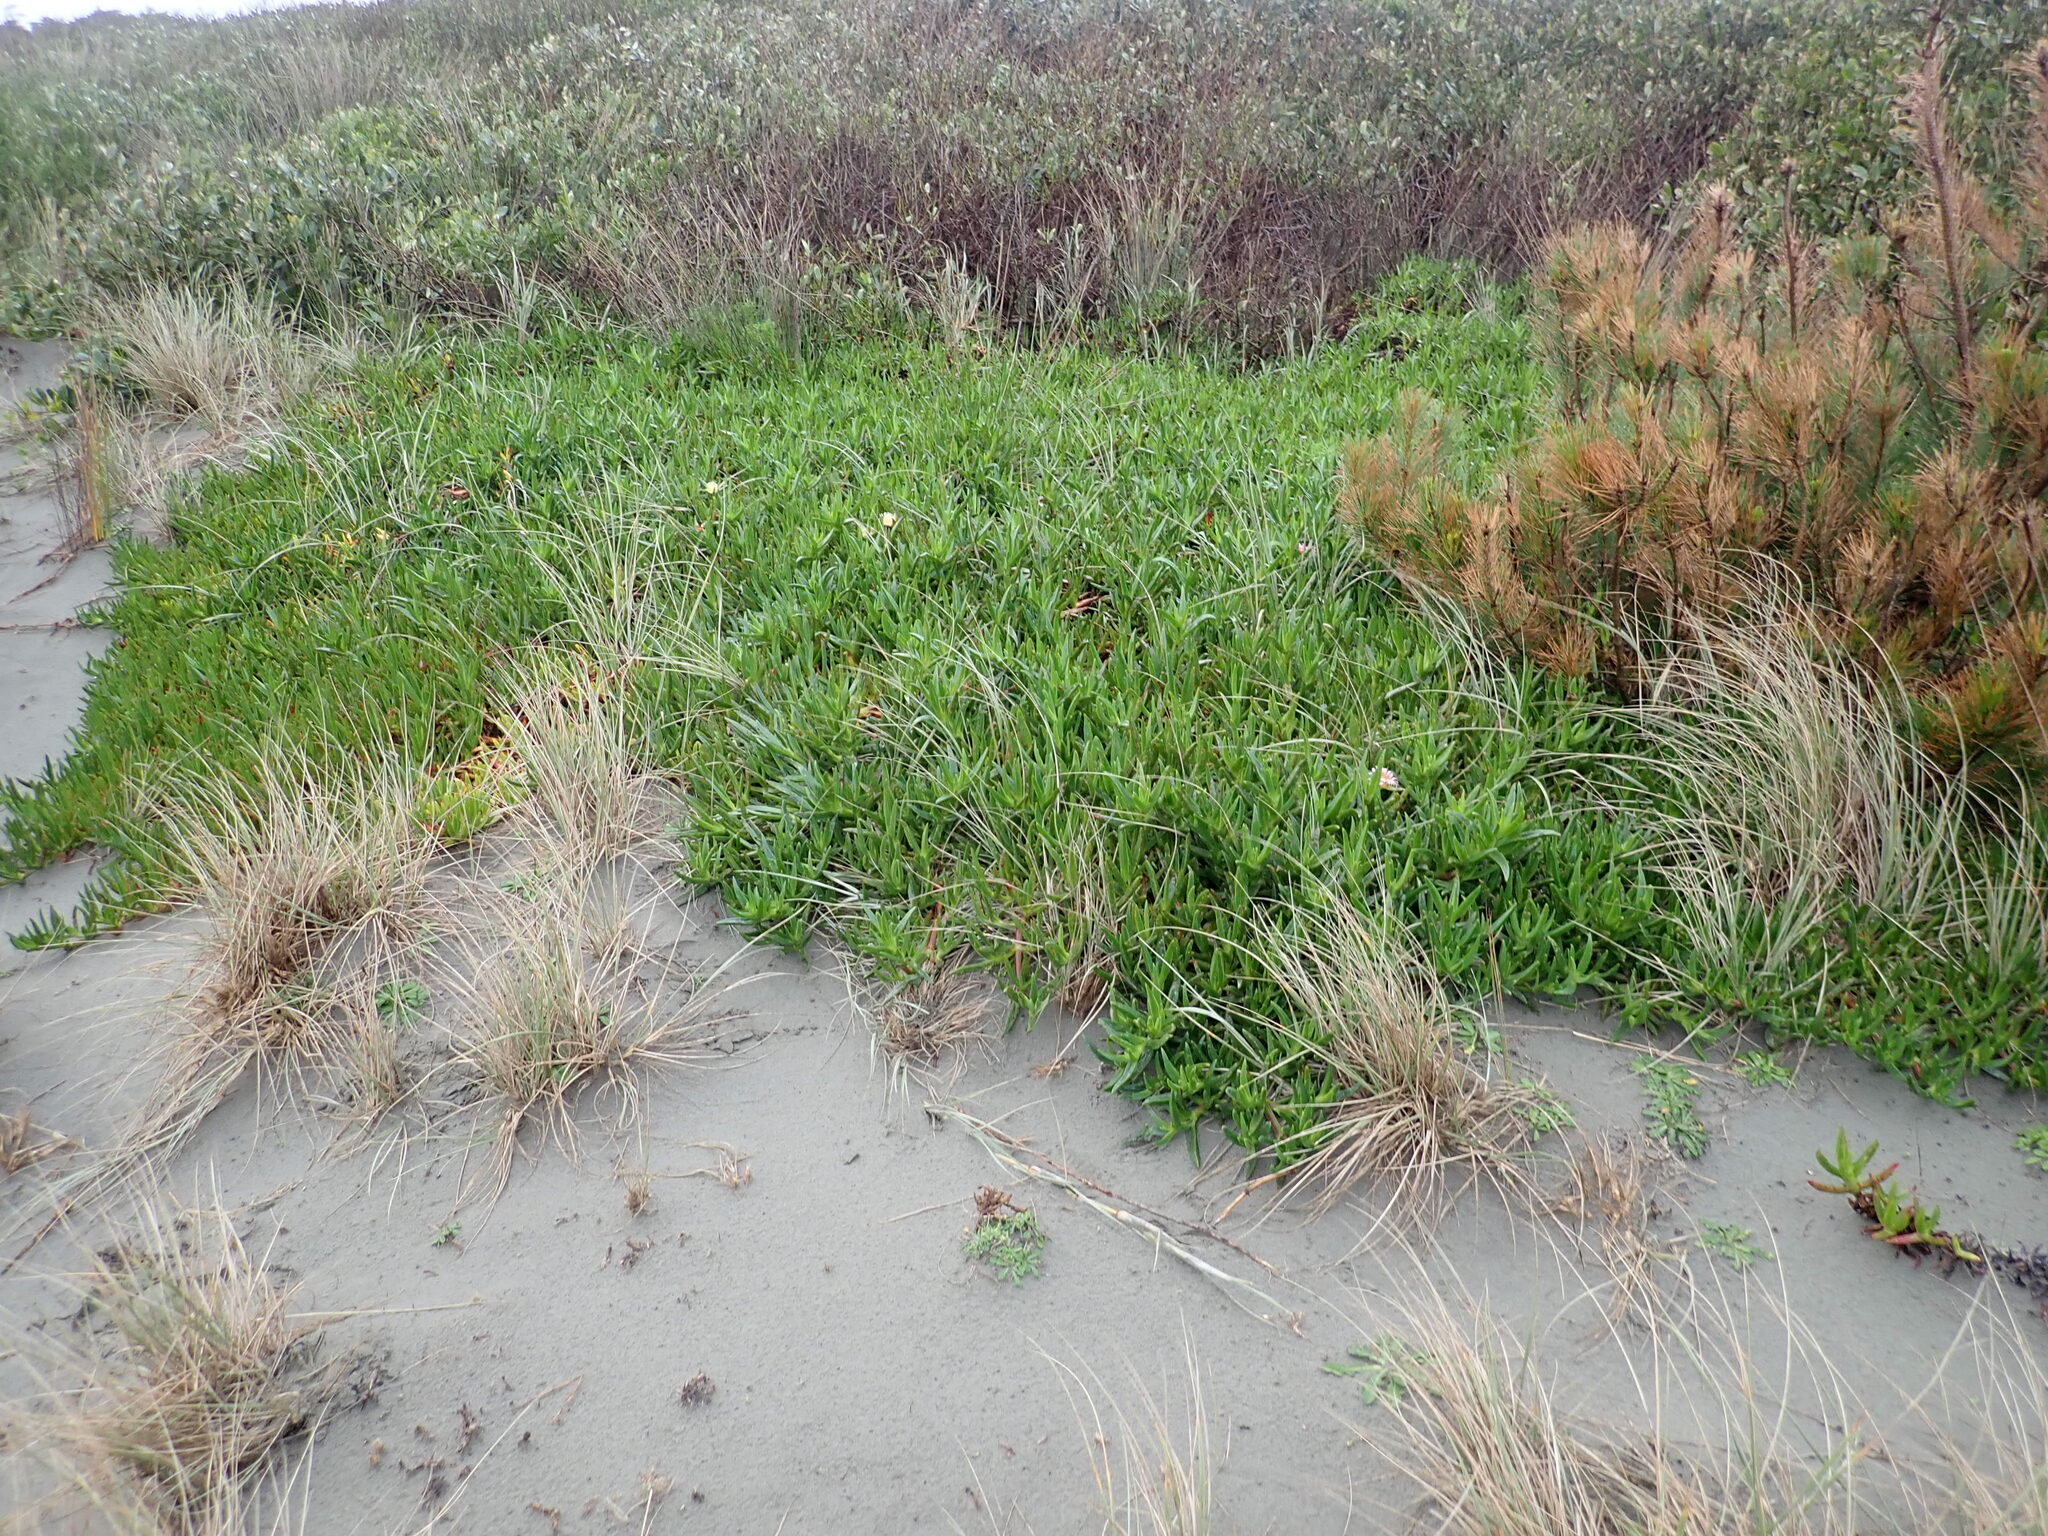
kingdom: Plantae
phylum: Tracheophyta
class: Magnoliopsida
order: Caryophyllales
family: Aizoaceae
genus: Carpobrotus
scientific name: Carpobrotus edulis
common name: Hottentot-fig
